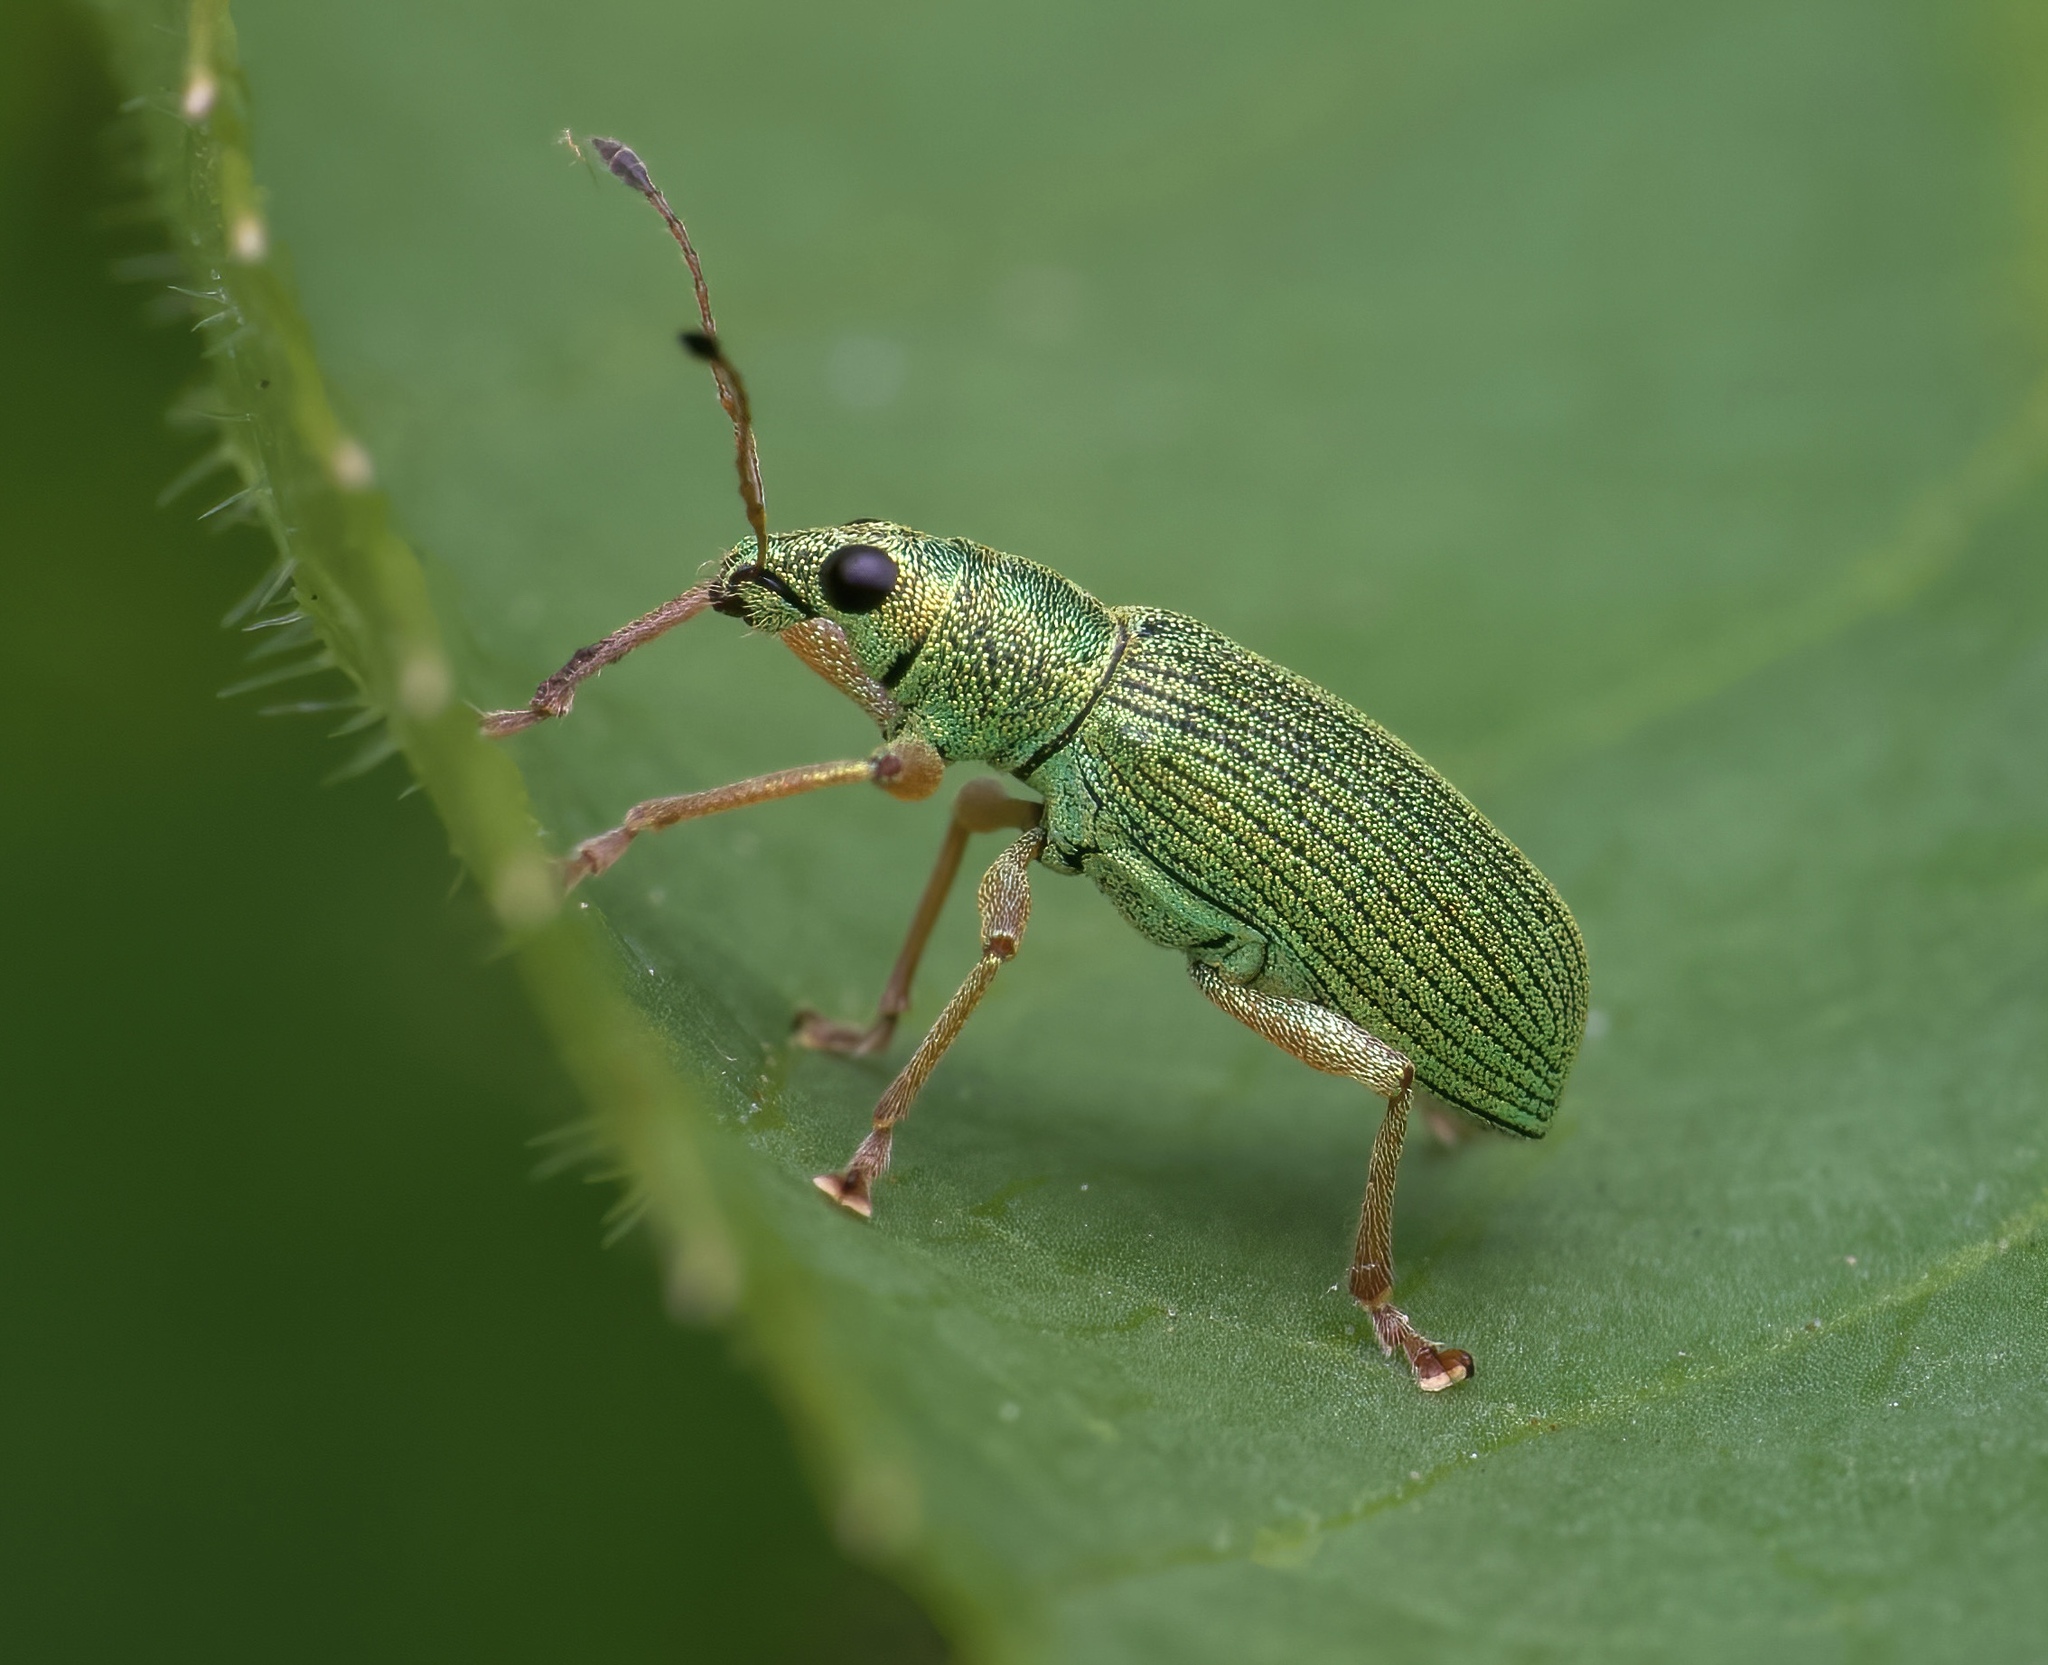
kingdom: Animalia
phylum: Arthropoda
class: Insecta
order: Coleoptera
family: Curculionidae
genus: Polydrusus
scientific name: Polydrusus formosus
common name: Weevil
